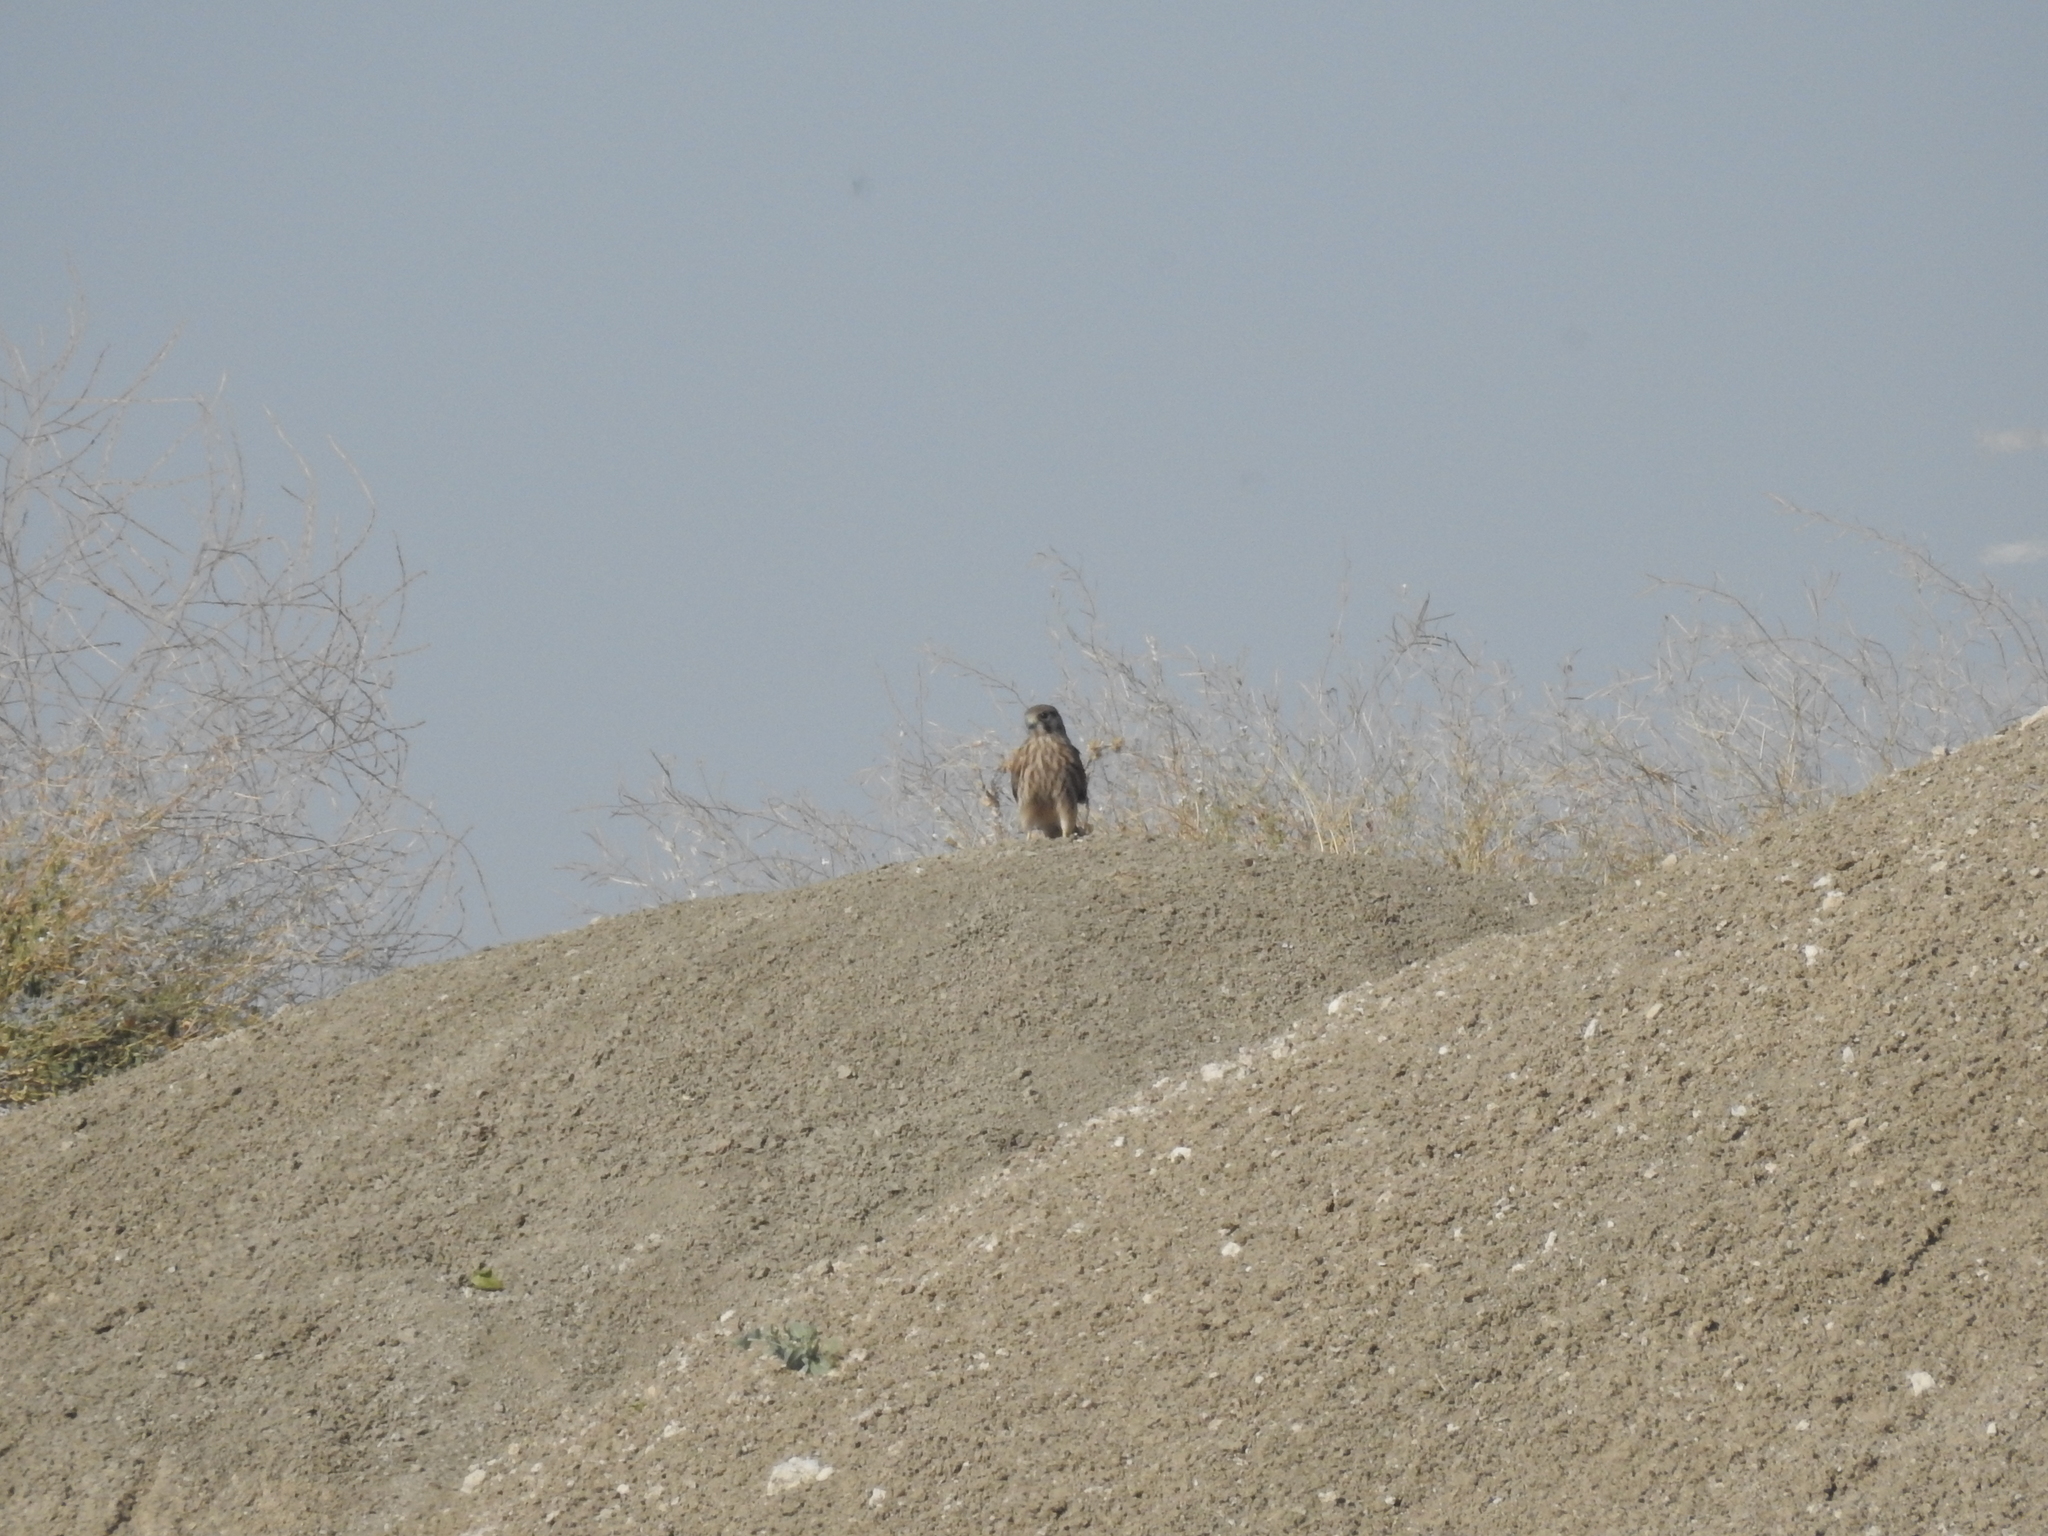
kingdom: Animalia
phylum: Chordata
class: Aves
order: Falconiformes
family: Falconidae
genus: Falco
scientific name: Falco tinnunculus
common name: Common kestrel
